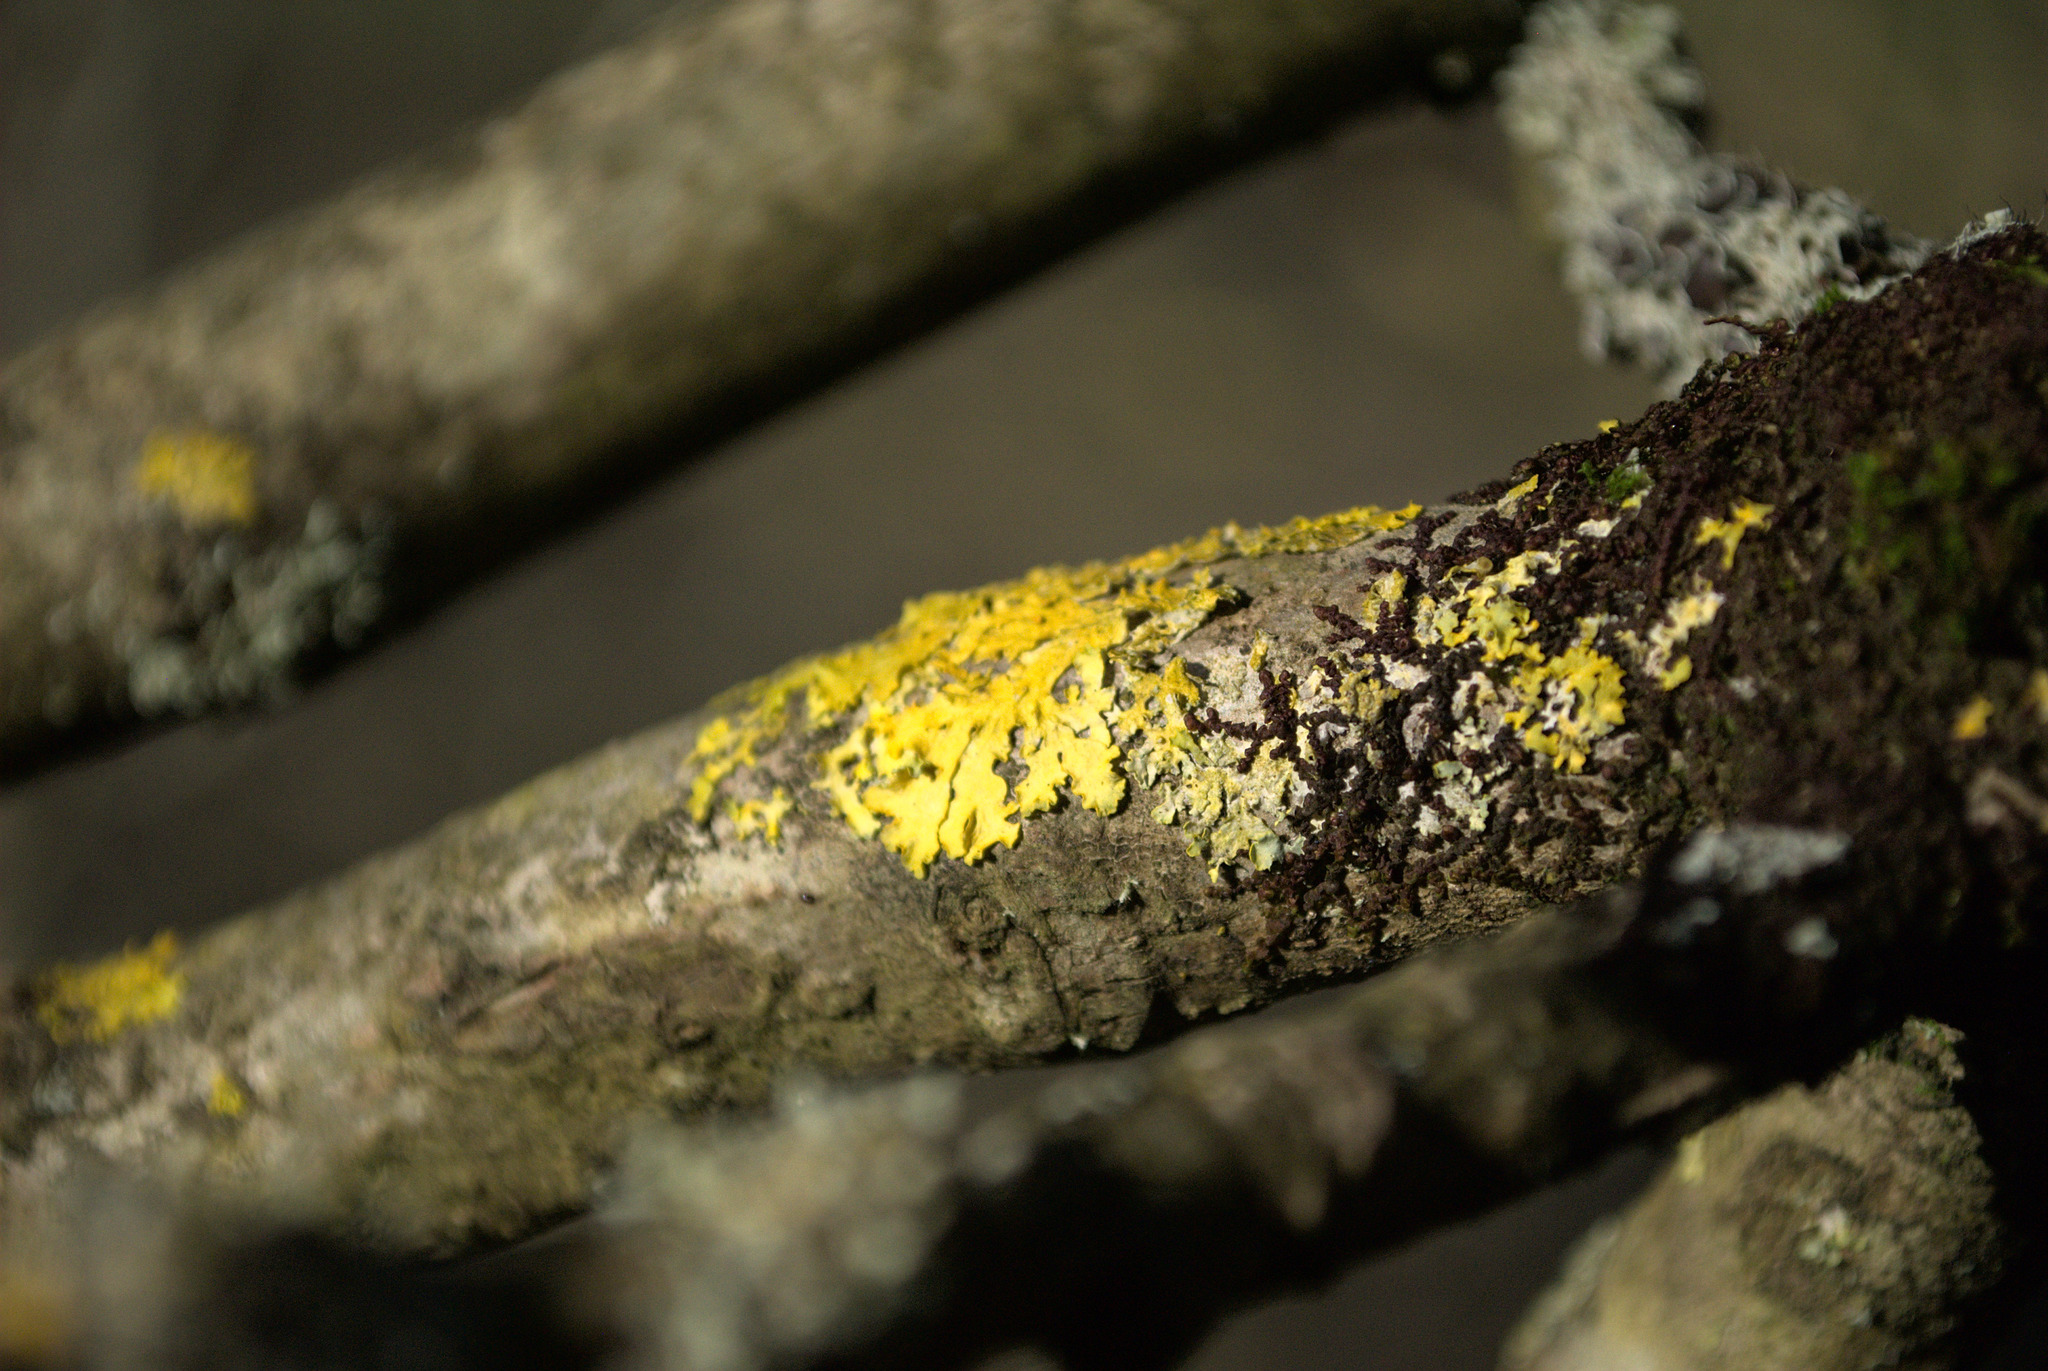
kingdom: Fungi
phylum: Ascomycota
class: Lecanoromycetes
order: Teloschistales
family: Teloschistaceae
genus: Xanthoria
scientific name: Xanthoria parietina
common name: Common orange lichen
